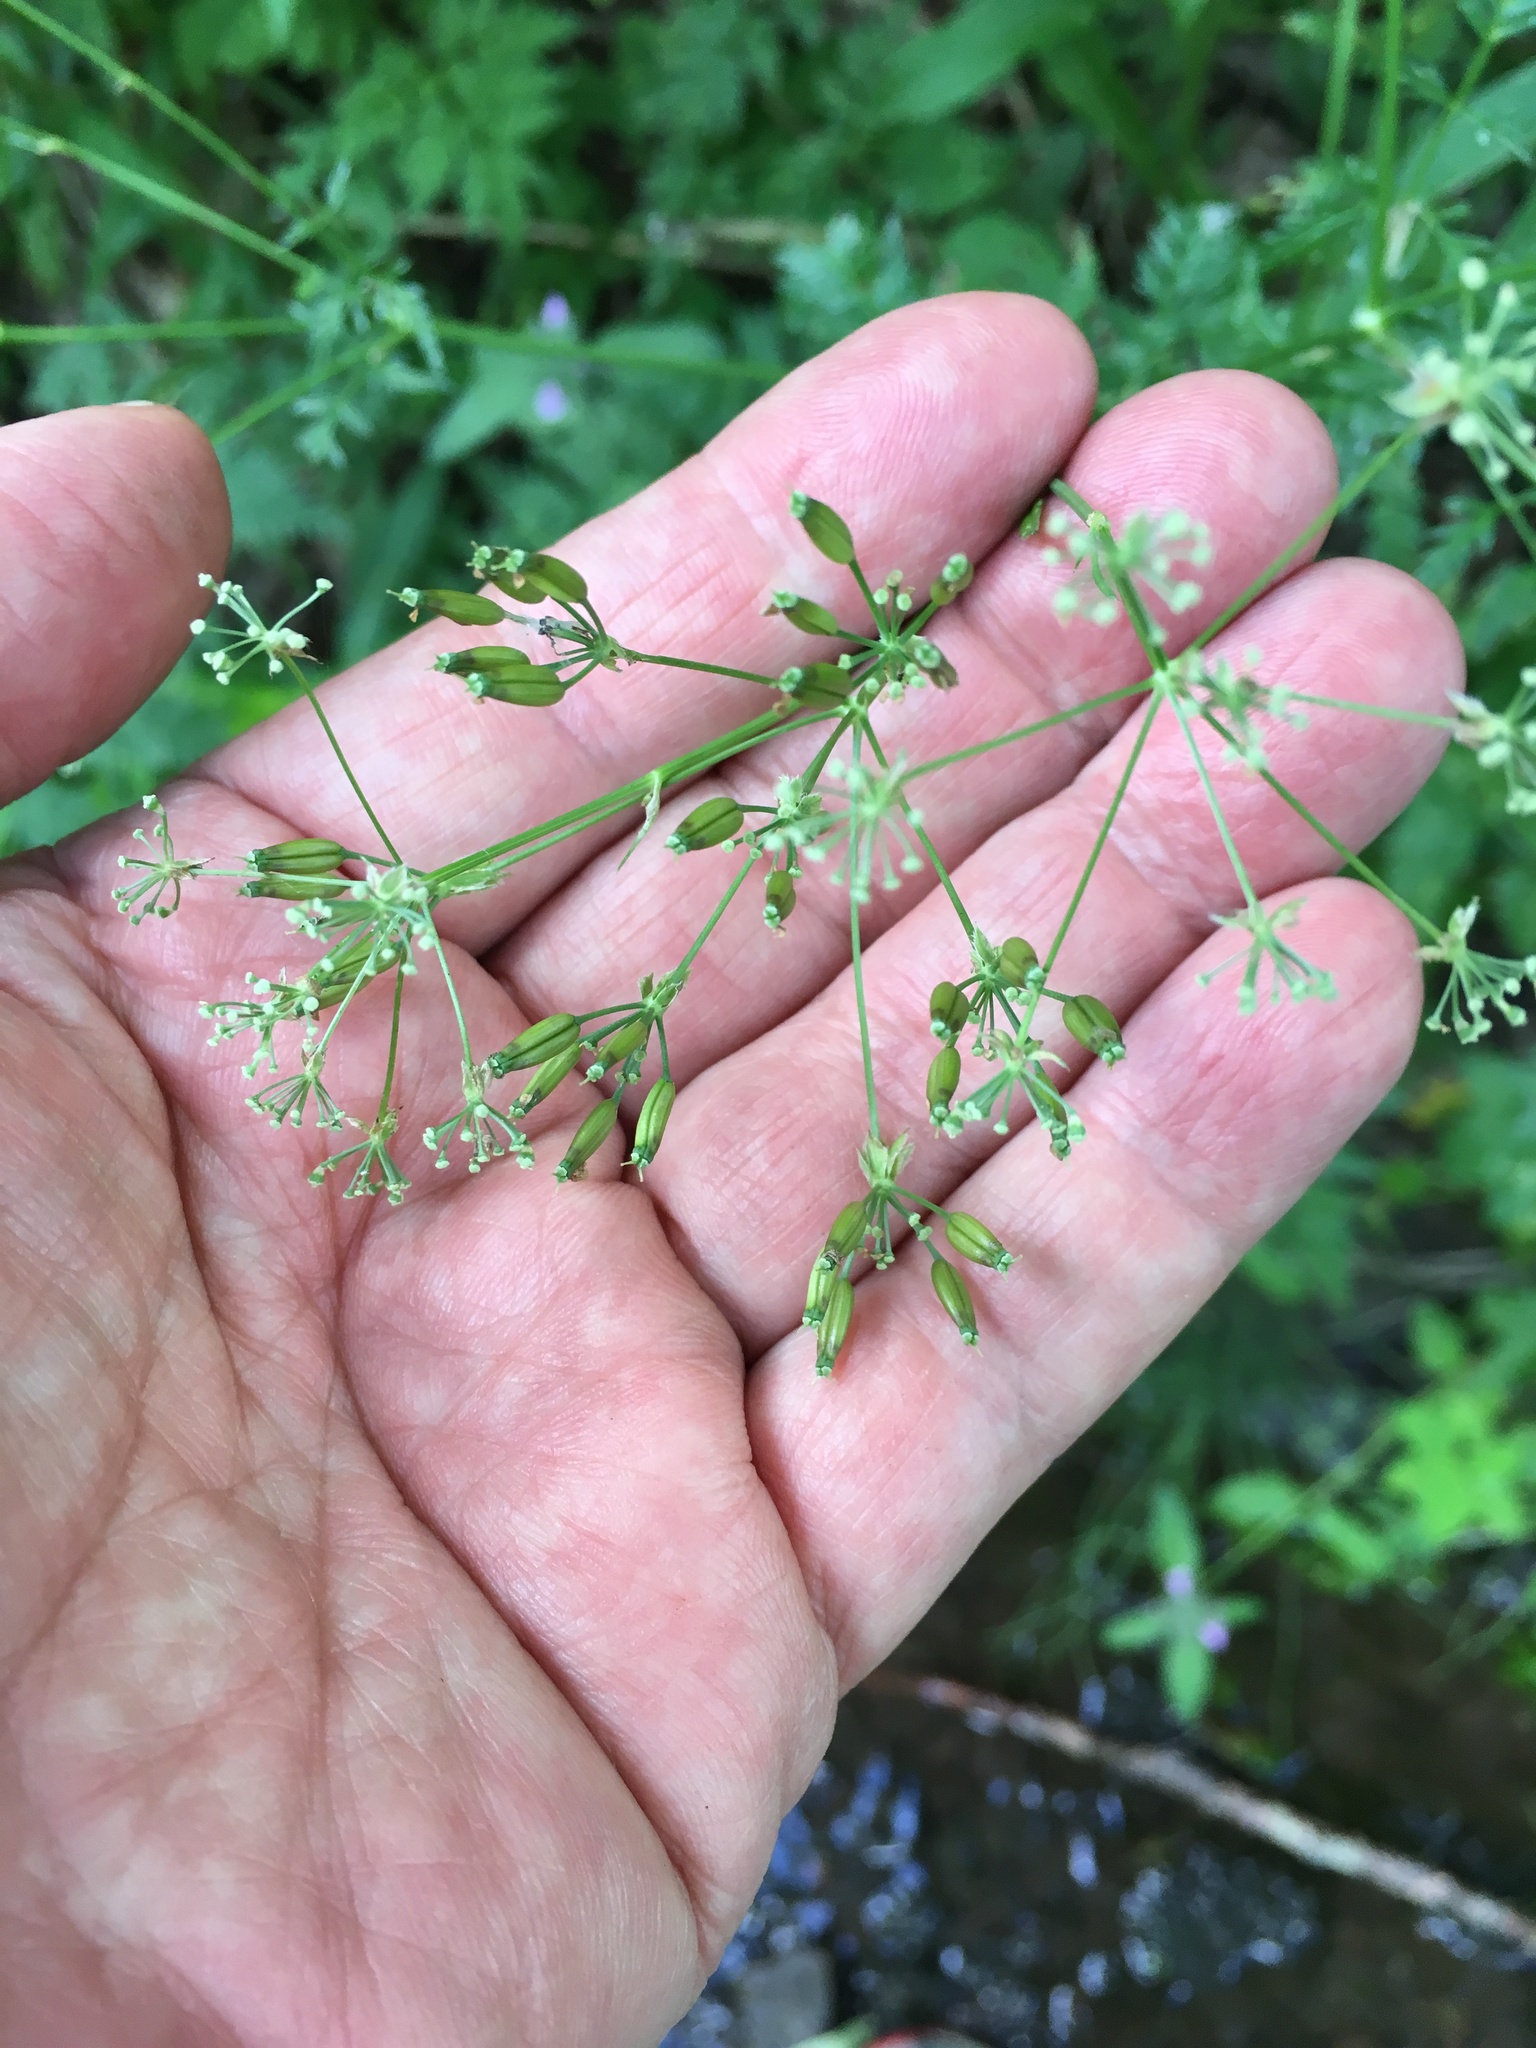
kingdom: Plantae
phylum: Tracheophyta
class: Magnoliopsida
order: Apiales
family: Apiaceae
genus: Anthriscus
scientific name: Anthriscus sylvestris
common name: Cow parsley
